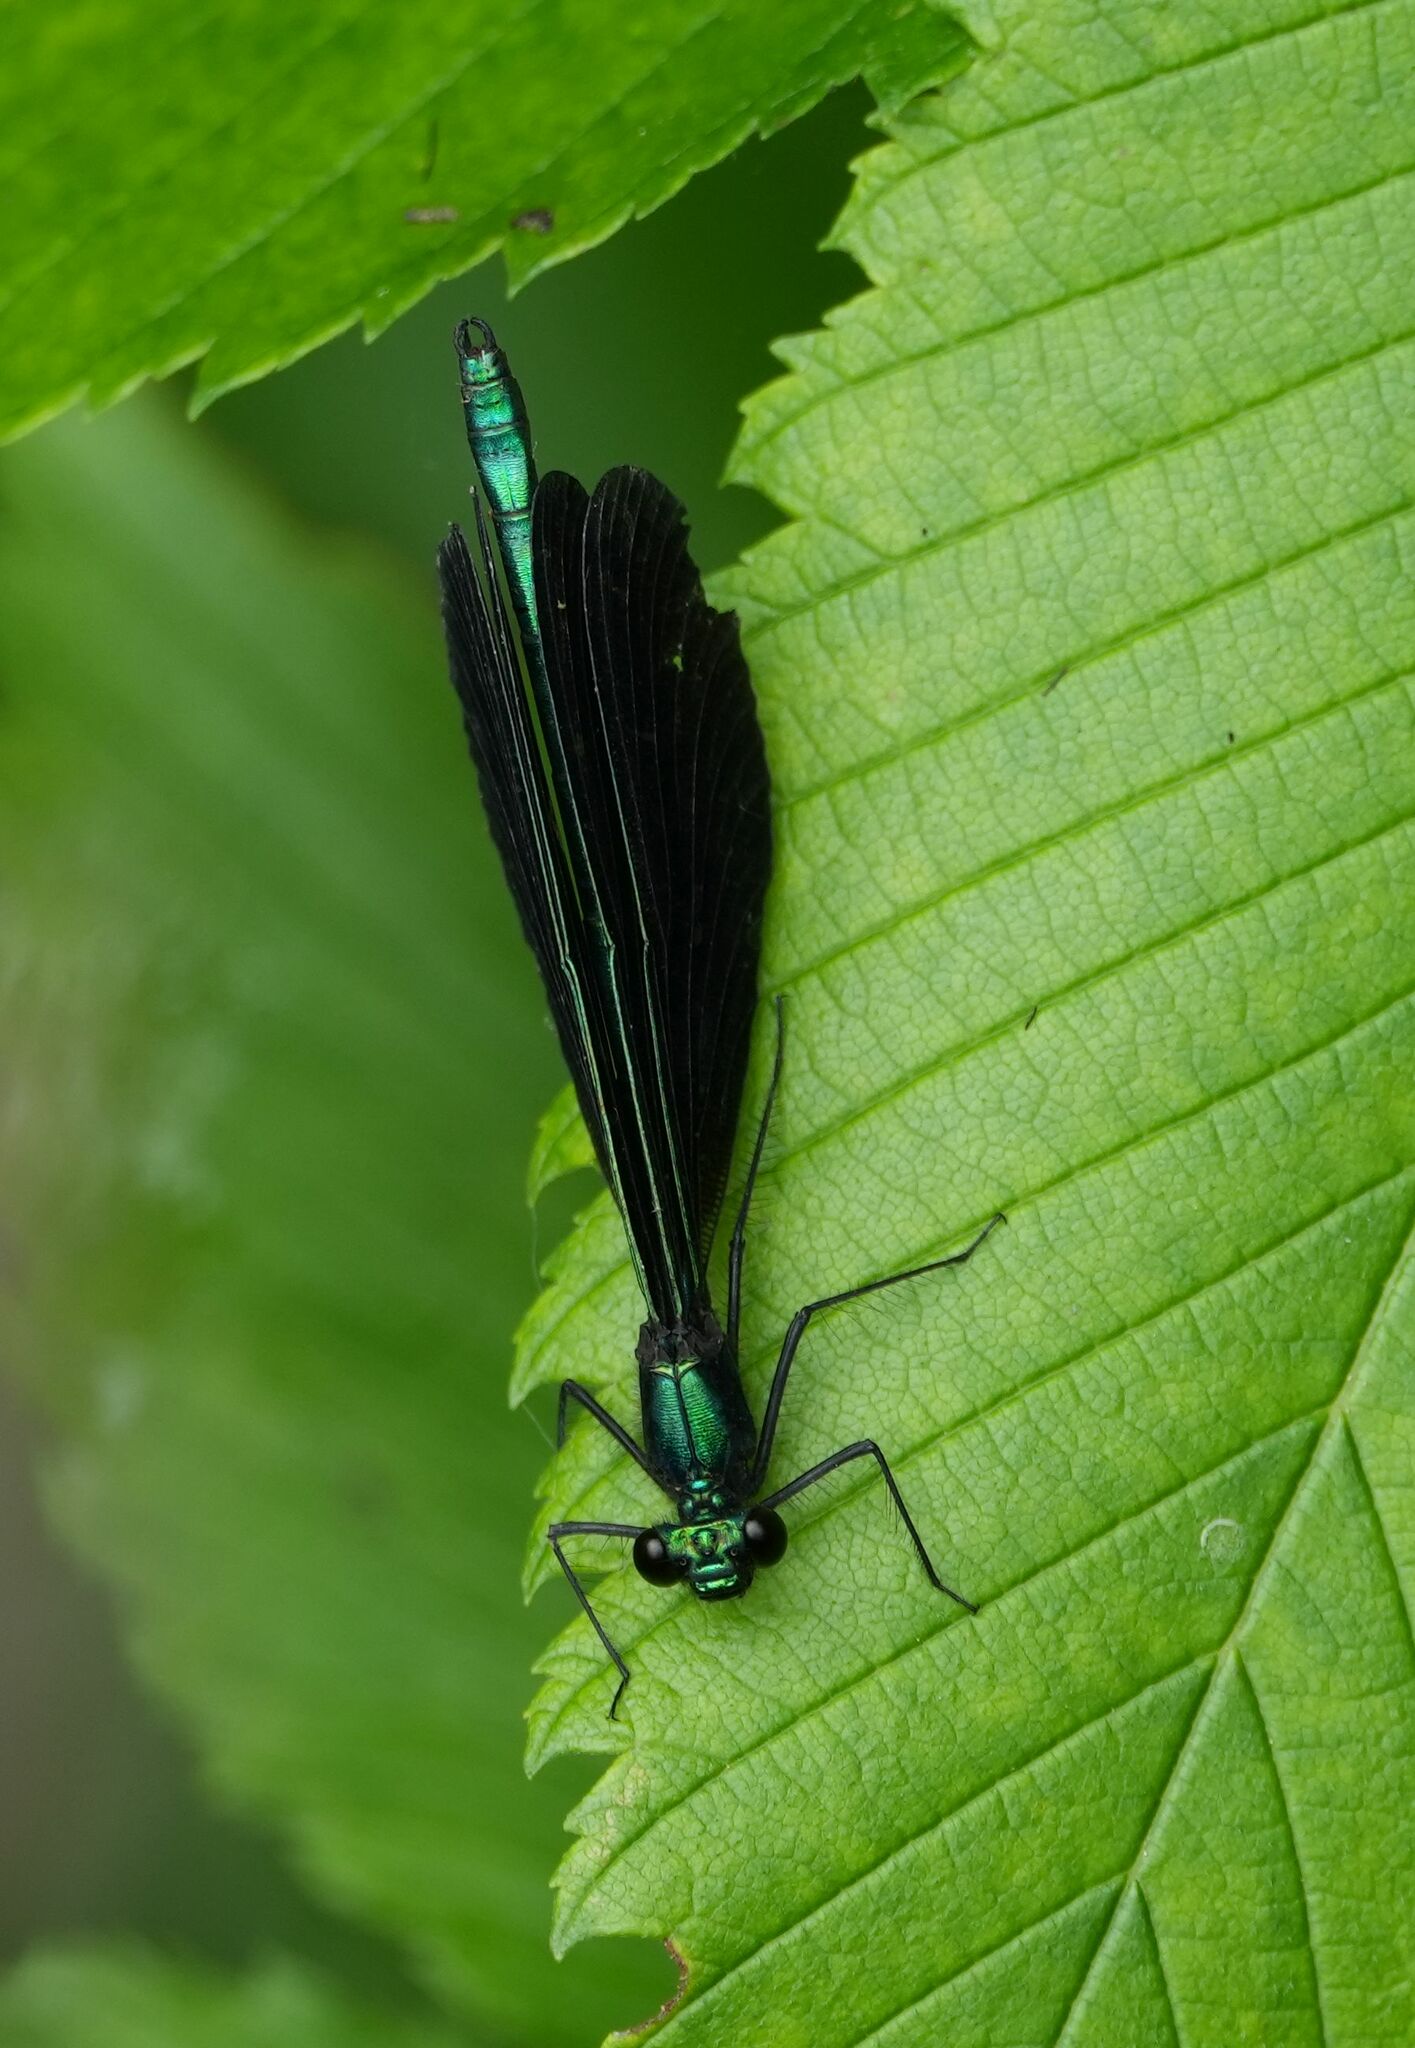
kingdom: Animalia
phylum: Arthropoda
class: Insecta
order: Odonata
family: Calopterygidae
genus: Calopteryx
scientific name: Calopteryx maculata
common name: Ebony jewelwing
